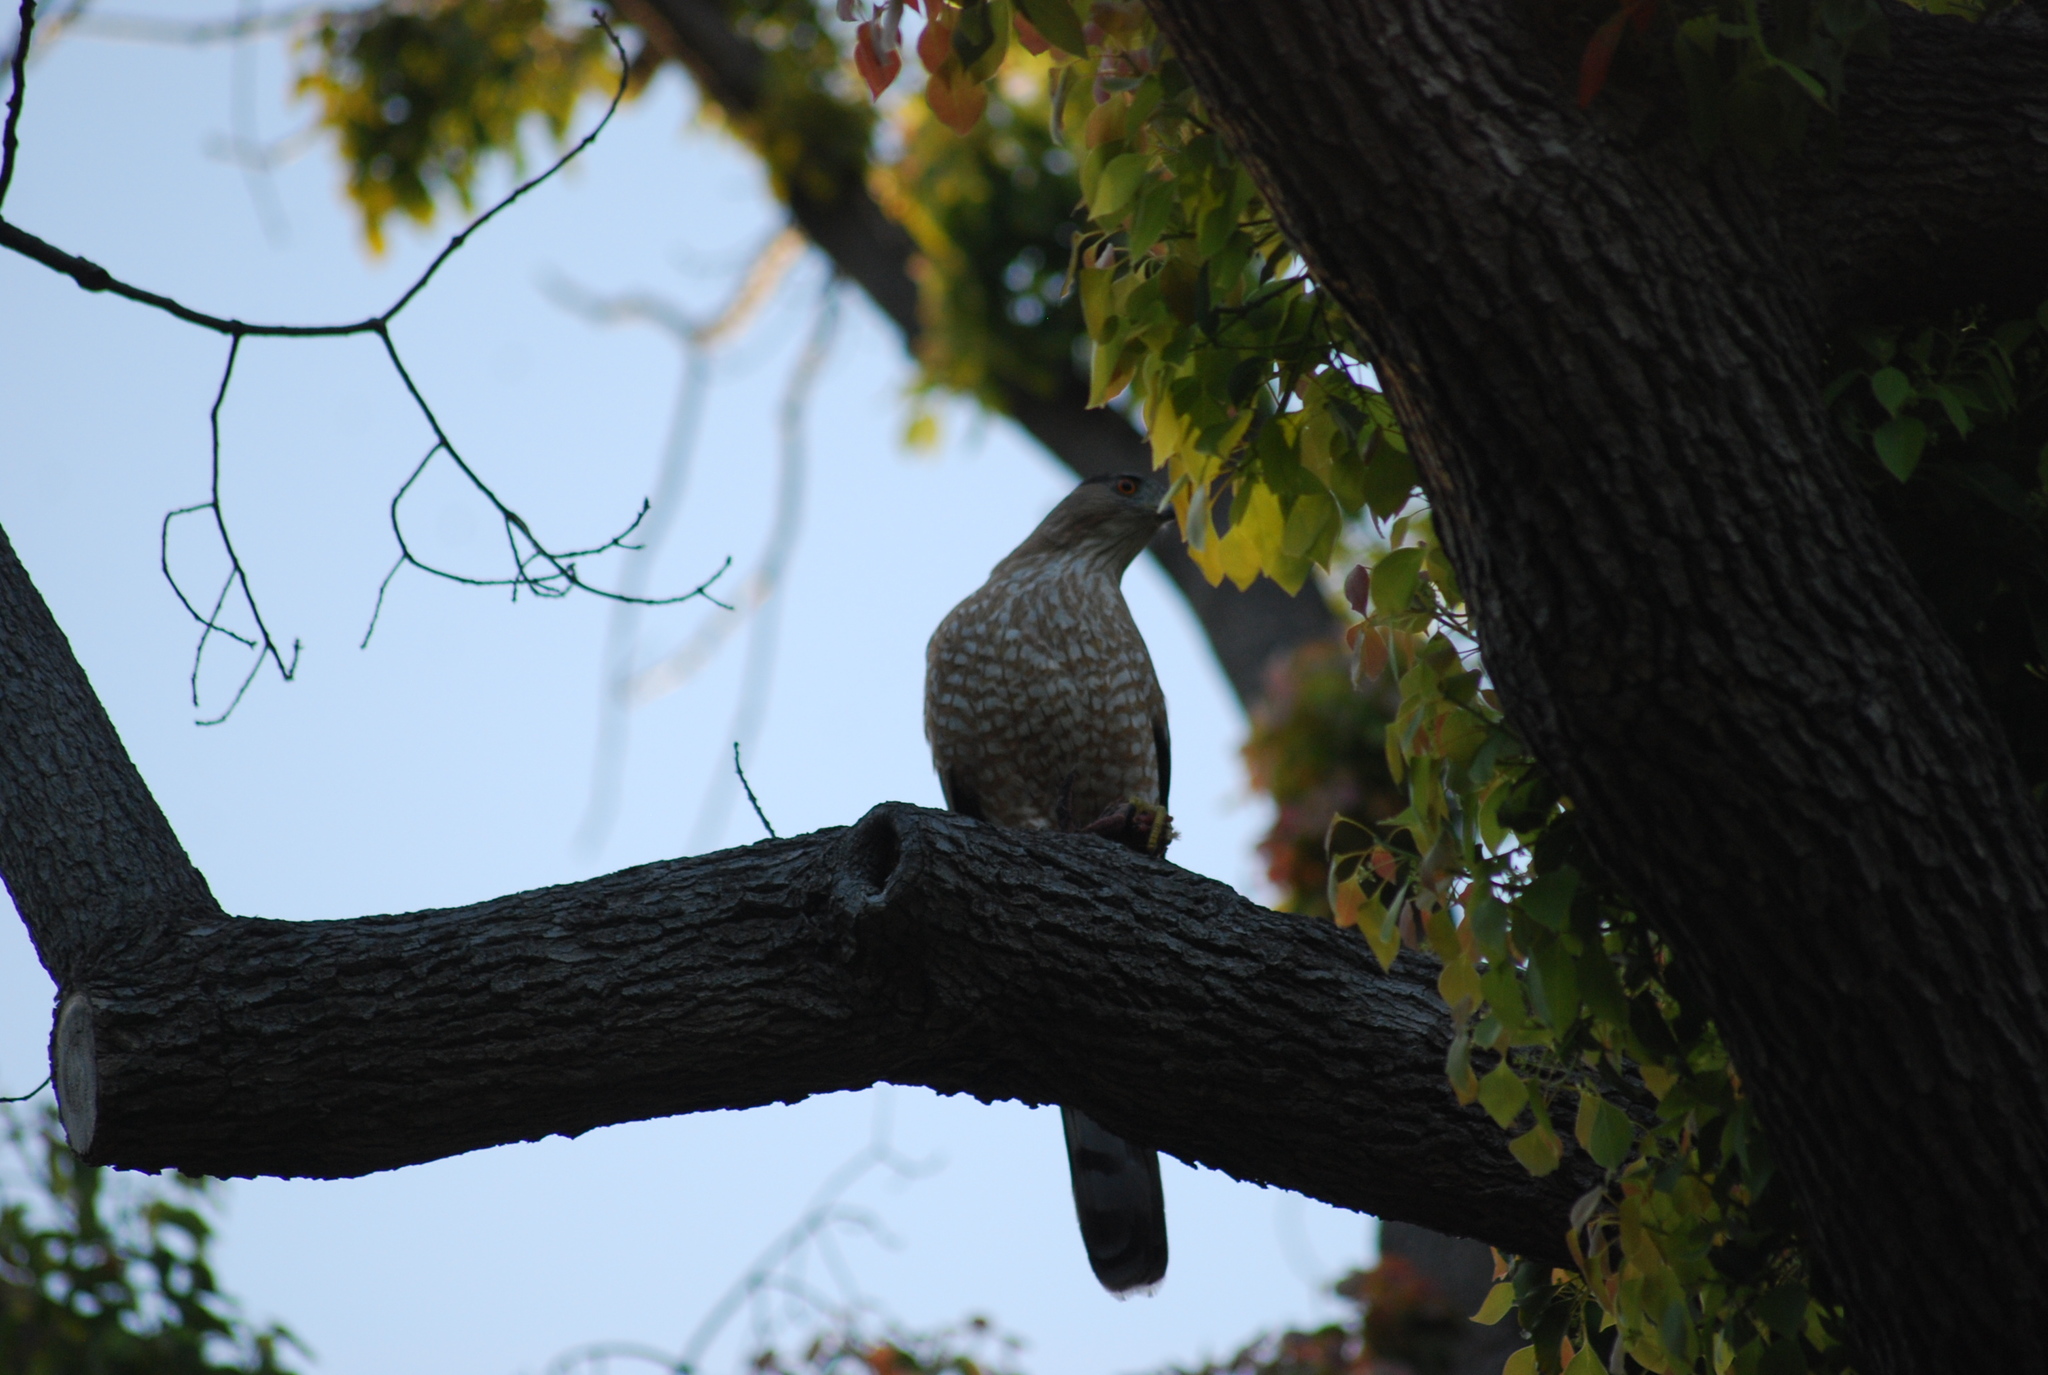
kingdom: Animalia
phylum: Chordata
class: Aves
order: Accipitriformes
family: Accipitridae
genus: Accipiter
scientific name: Accipiter cooperii
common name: Cooper's hawk
